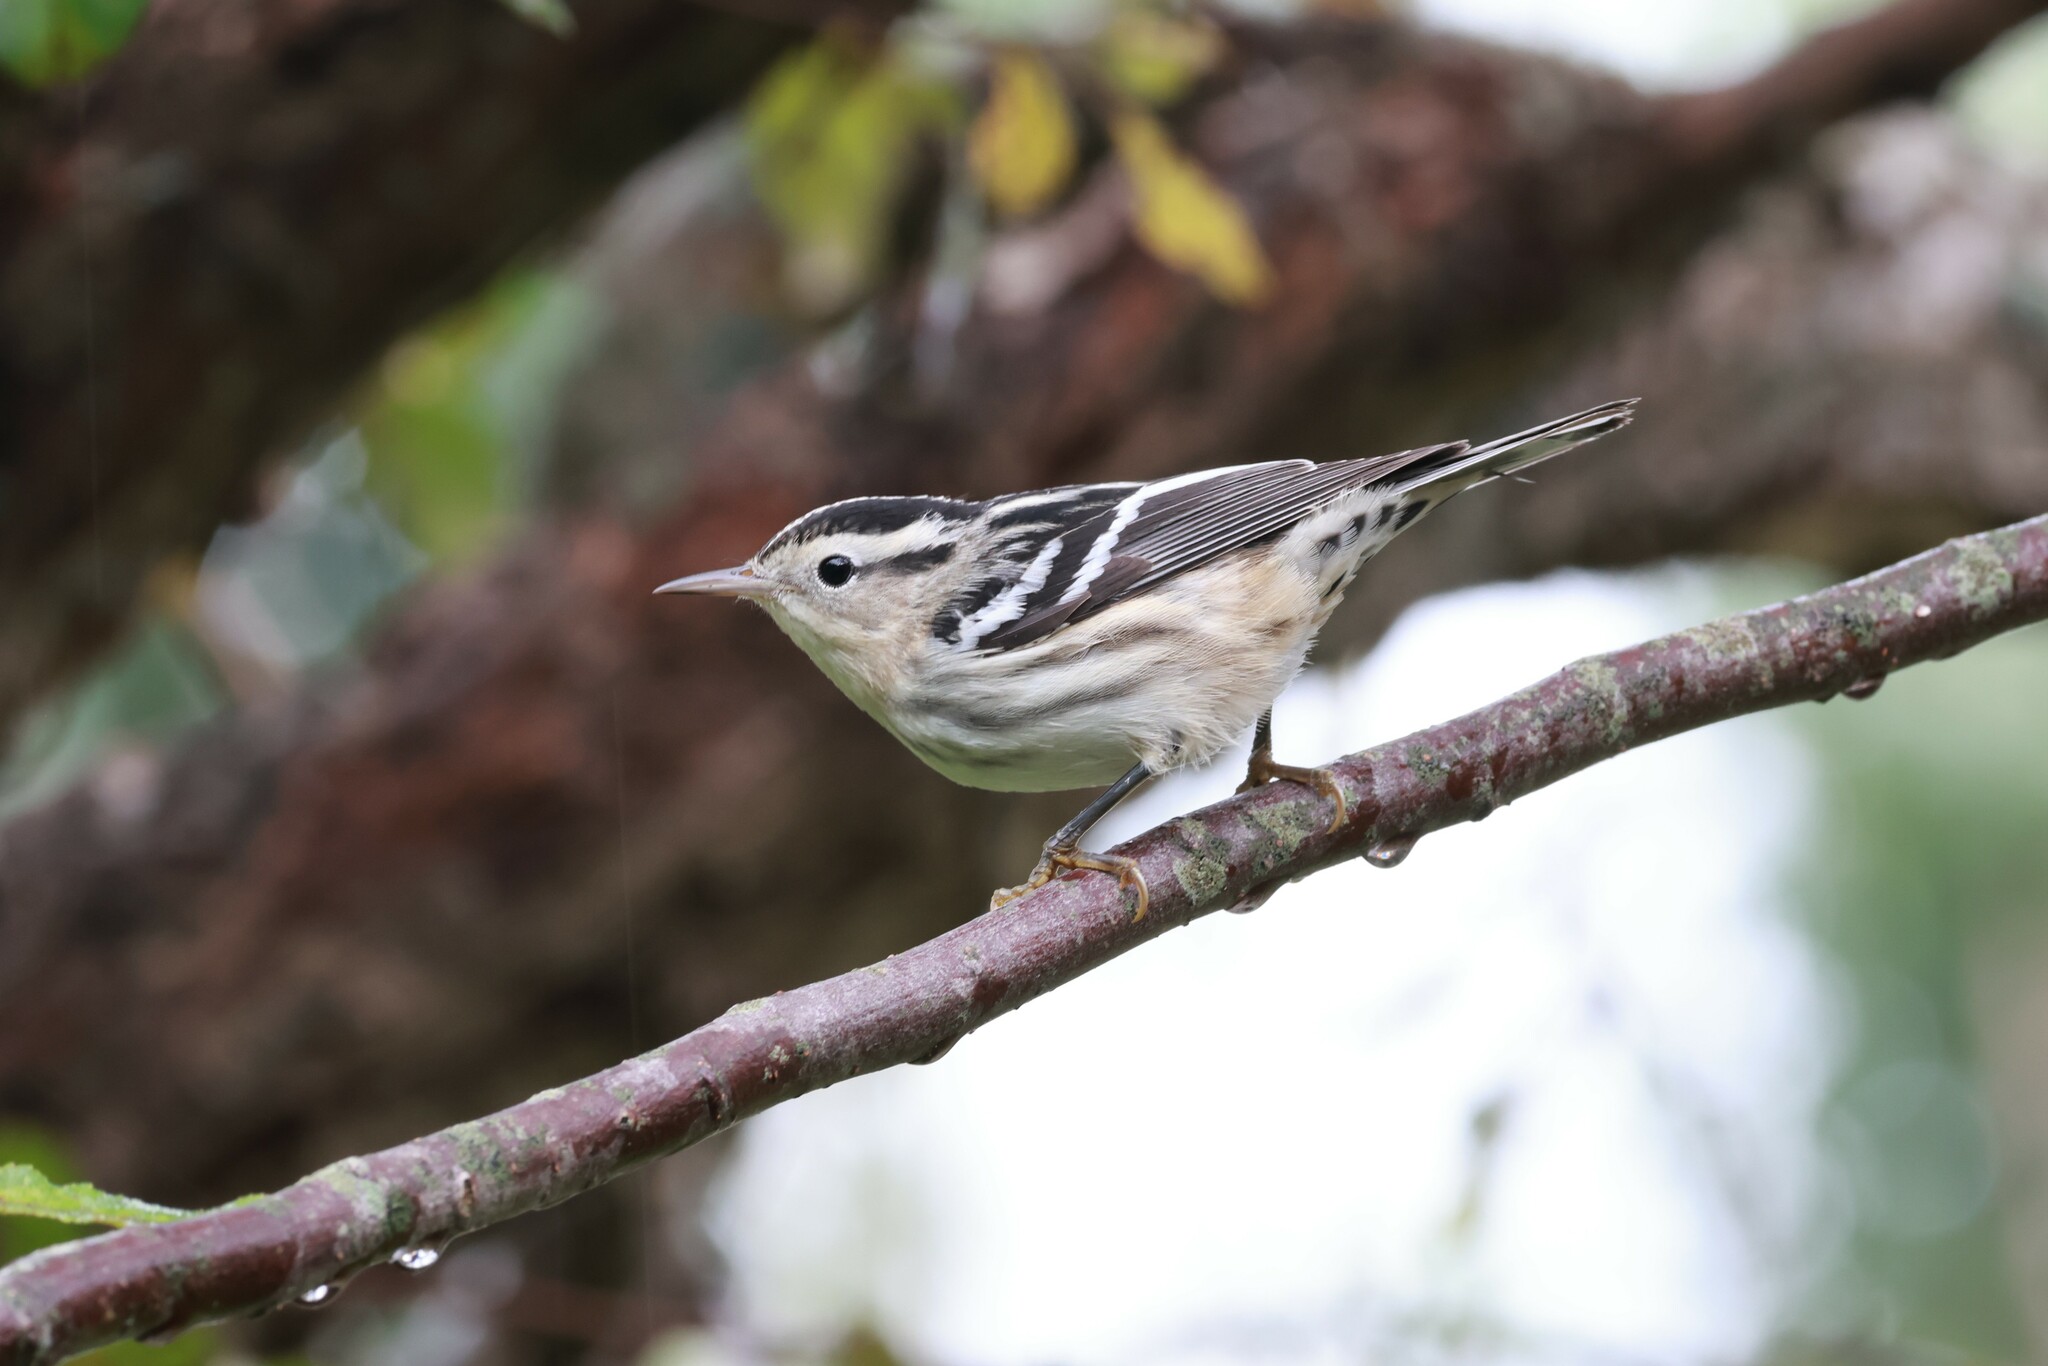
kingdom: Animalia
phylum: Chordata
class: Aves
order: Passeriformes
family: Parulidae
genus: Mniotilta
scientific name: Mniotilta varia
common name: Black-and-white warbler
